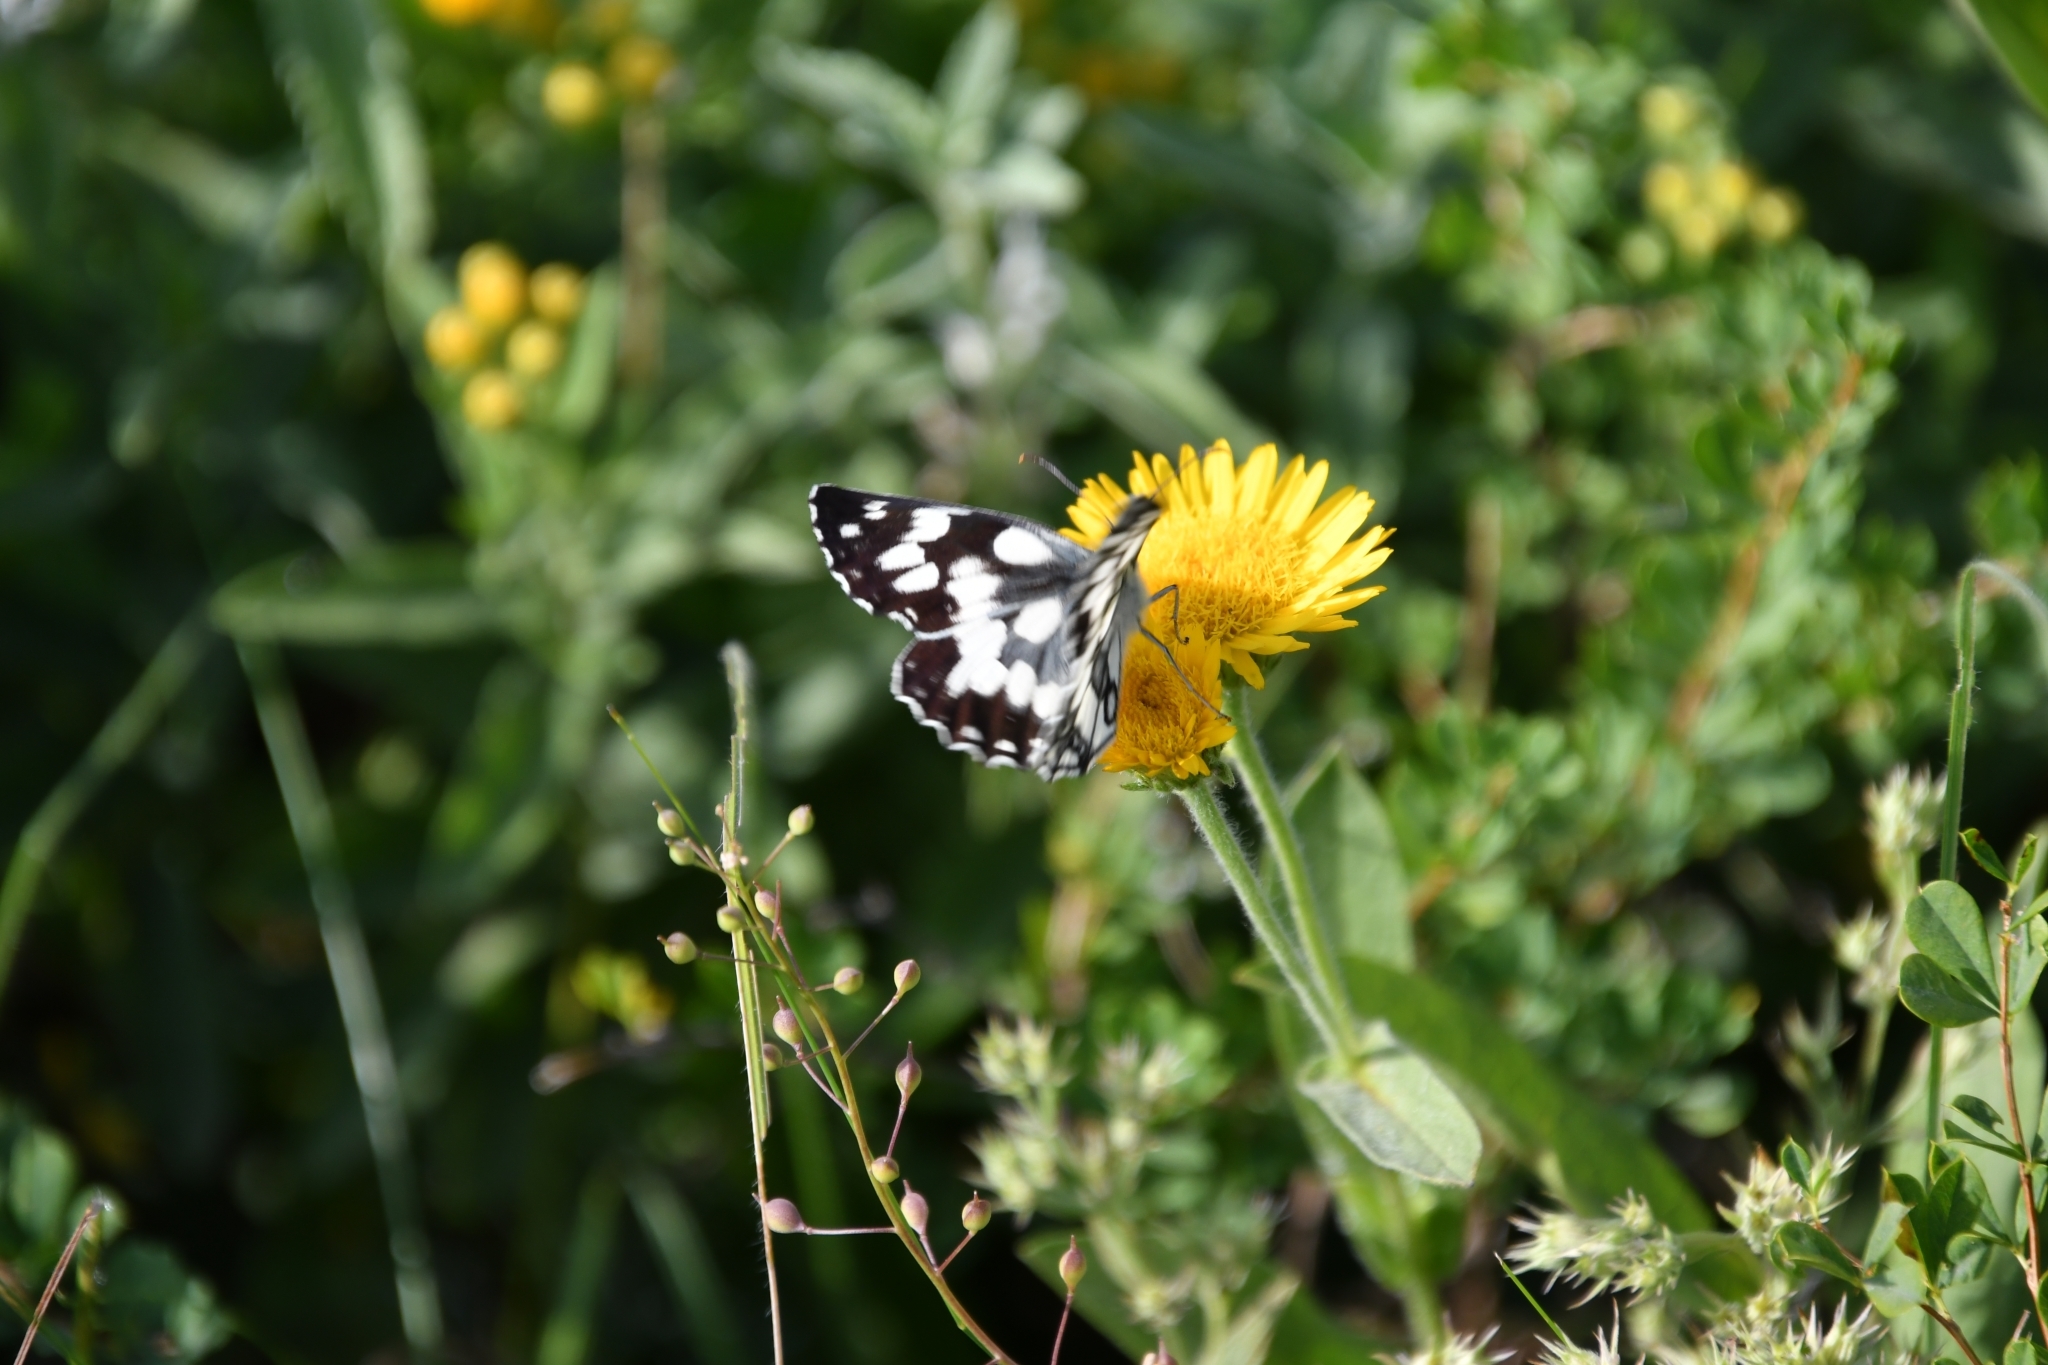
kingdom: Animalia
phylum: Arthropoda
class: Insecta
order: Lepidoptera
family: Nymphalidae
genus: Melanargia
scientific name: Melanargia galathea
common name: Marbled white
